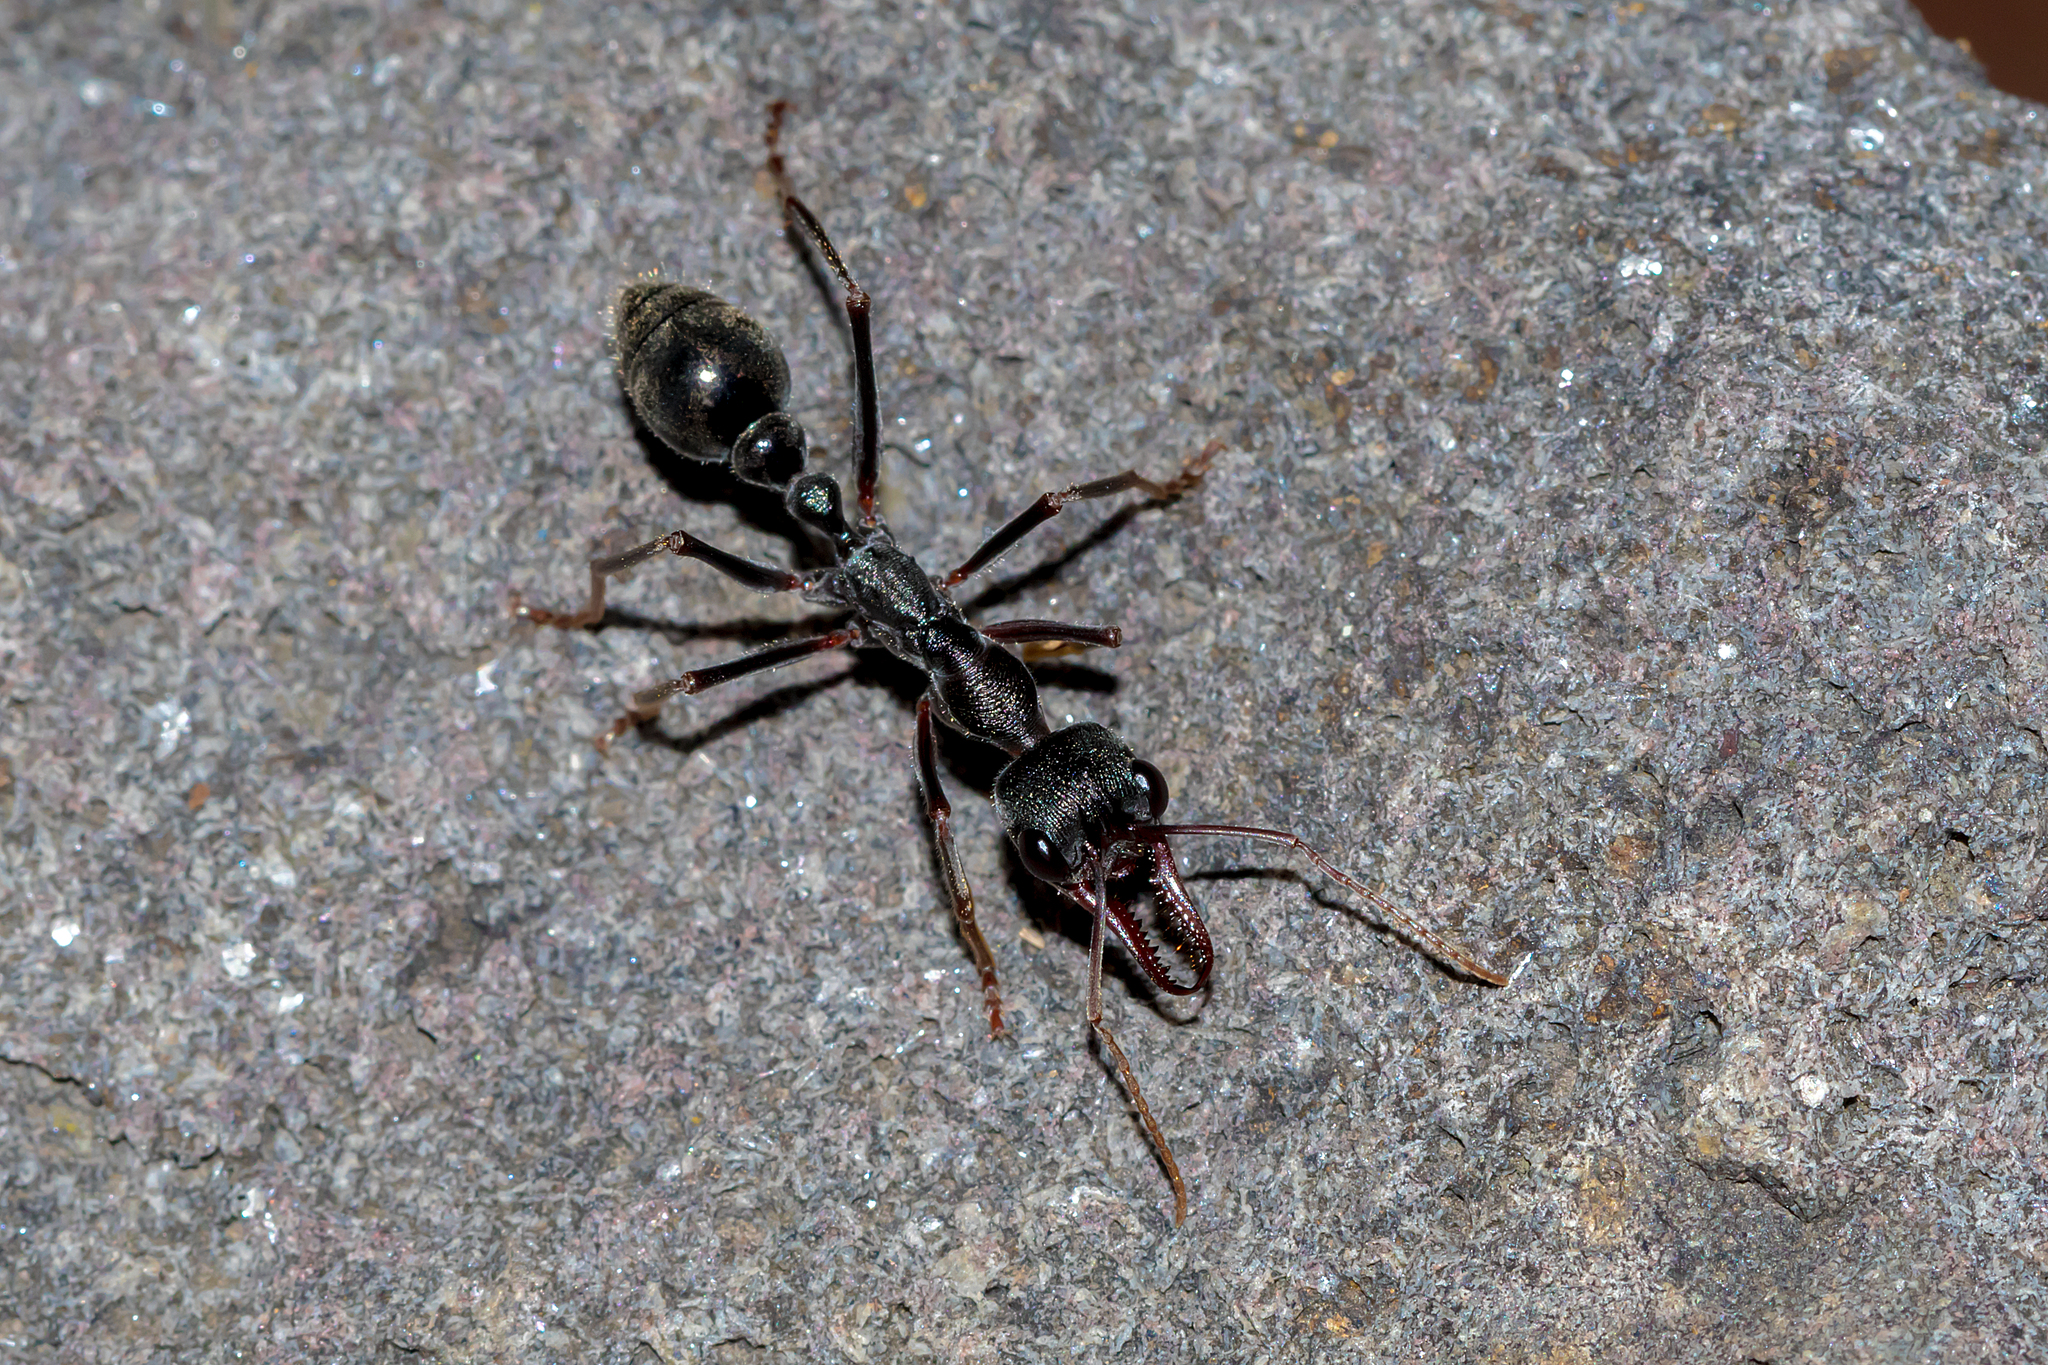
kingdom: Animalia
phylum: Arthropoda
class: Insecta
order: Hymenoptera
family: Formicidae
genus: Myrmecia
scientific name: Myrmecia pyriformis
